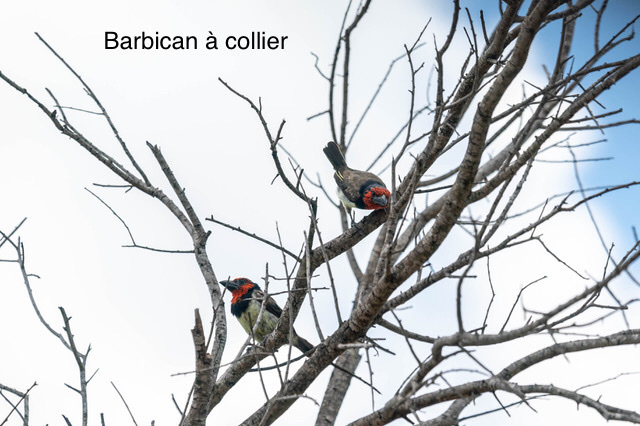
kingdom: Animalia
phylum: Chordata
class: Aves
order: Piciformes
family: Lybiidae
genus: Lybius
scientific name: Lybius torquatus
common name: Black-collared barbet
